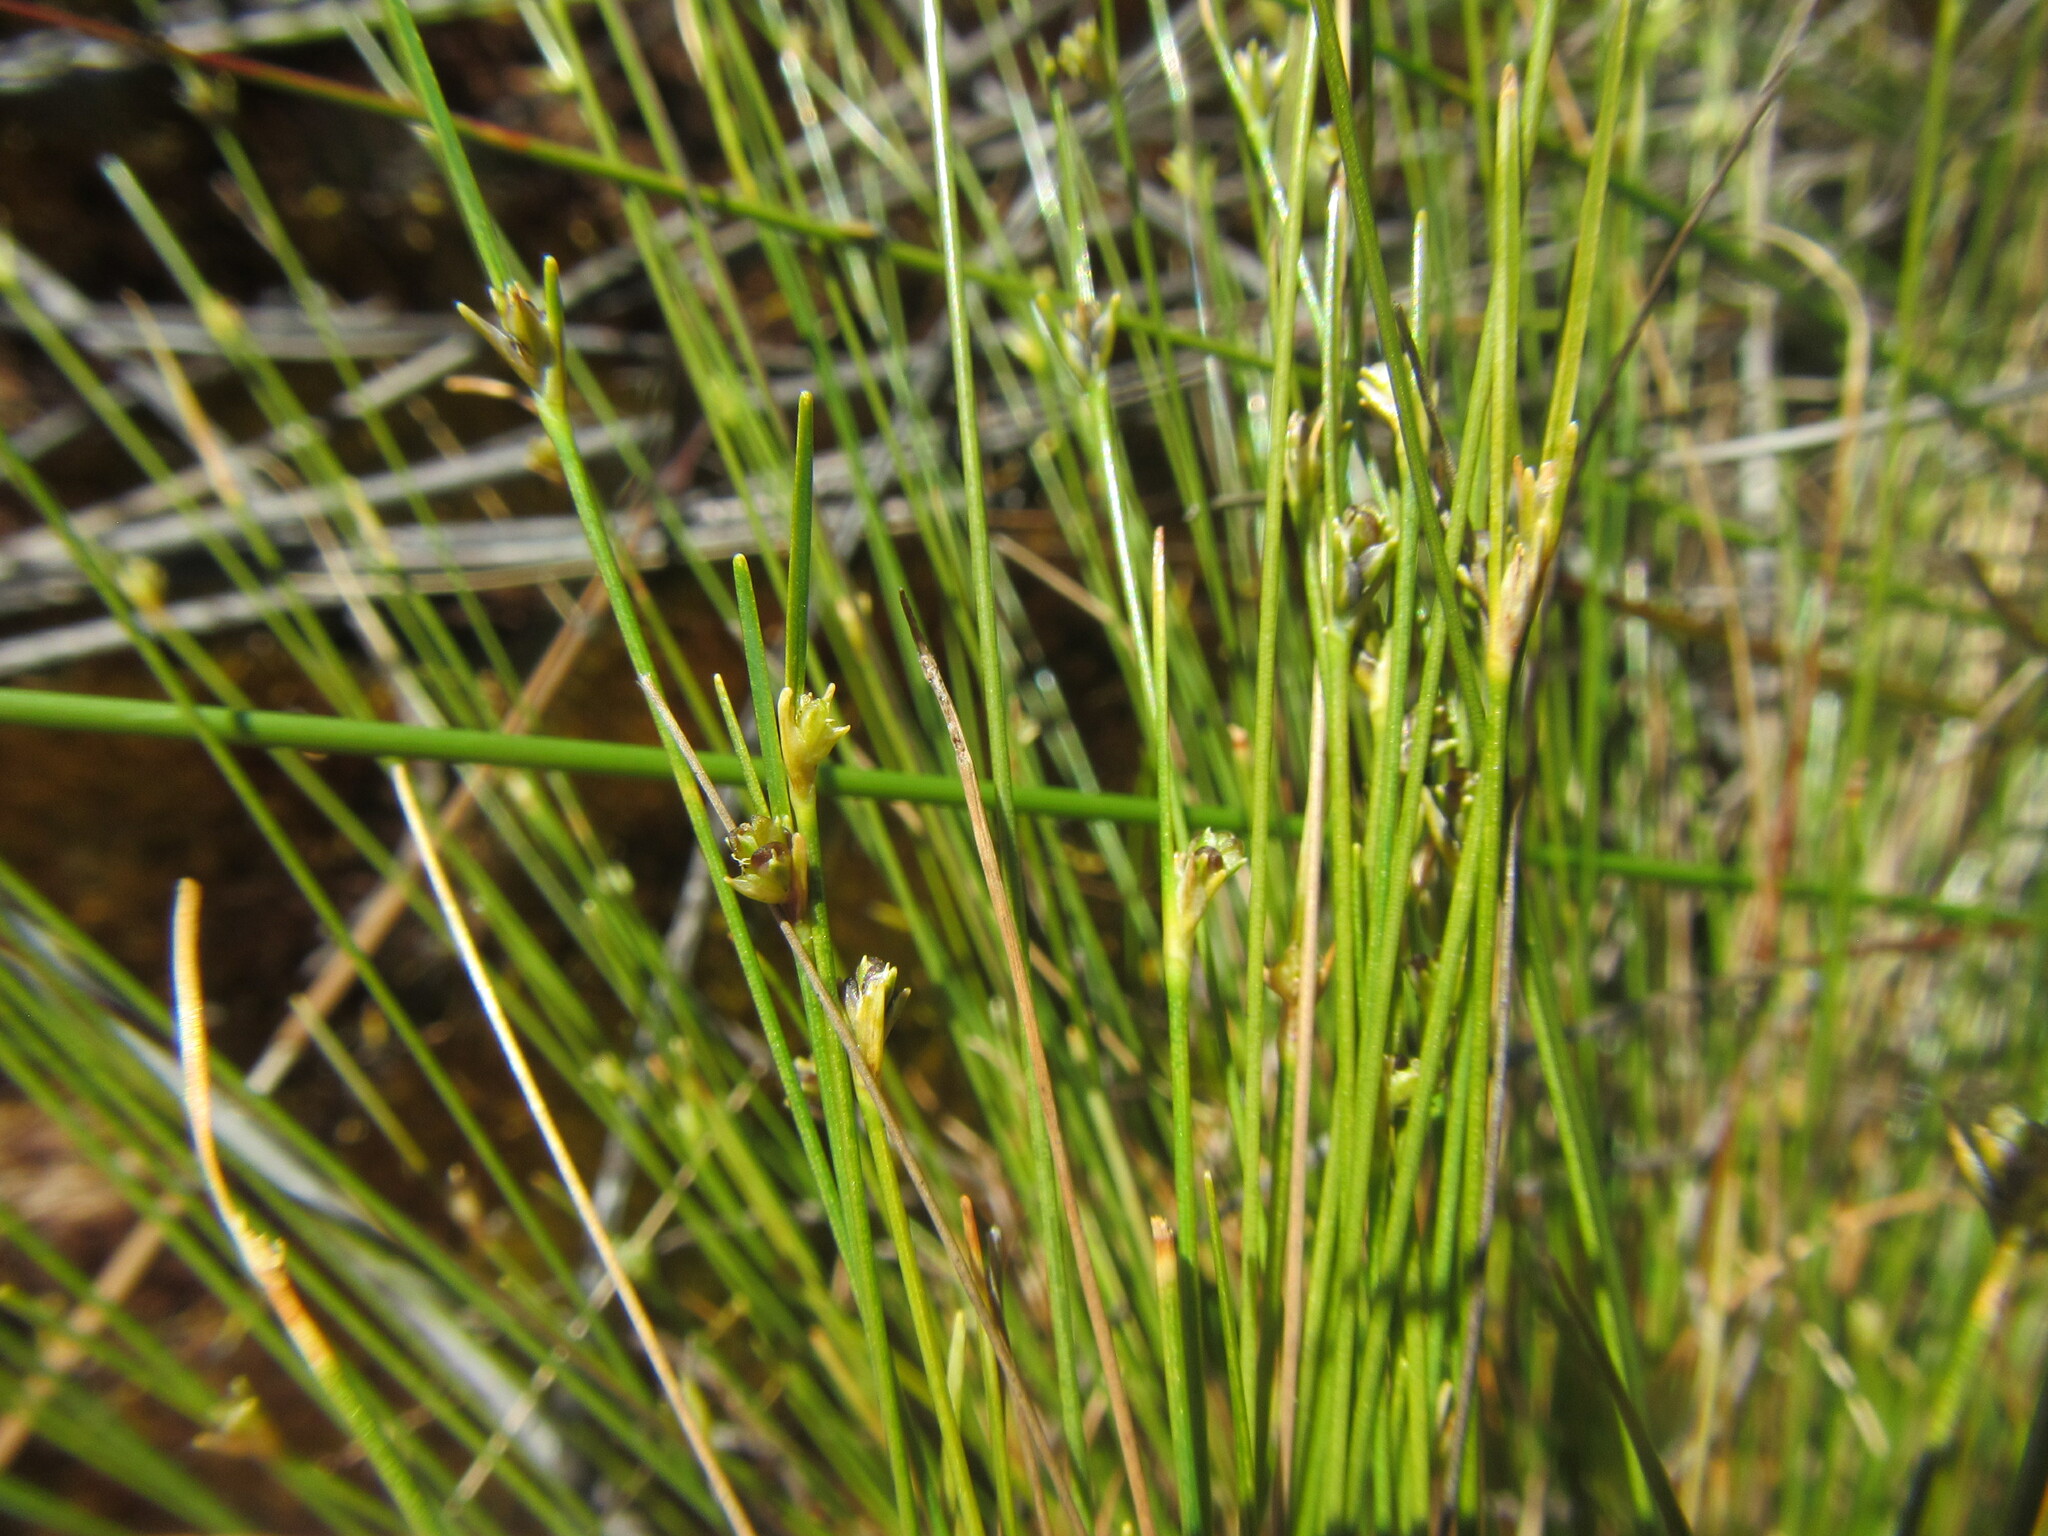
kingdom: Plantae
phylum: Tracheophyta
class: Liliopsida
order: Poales
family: Cyperaceae
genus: Ficinia
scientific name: Ficinia micrantha
